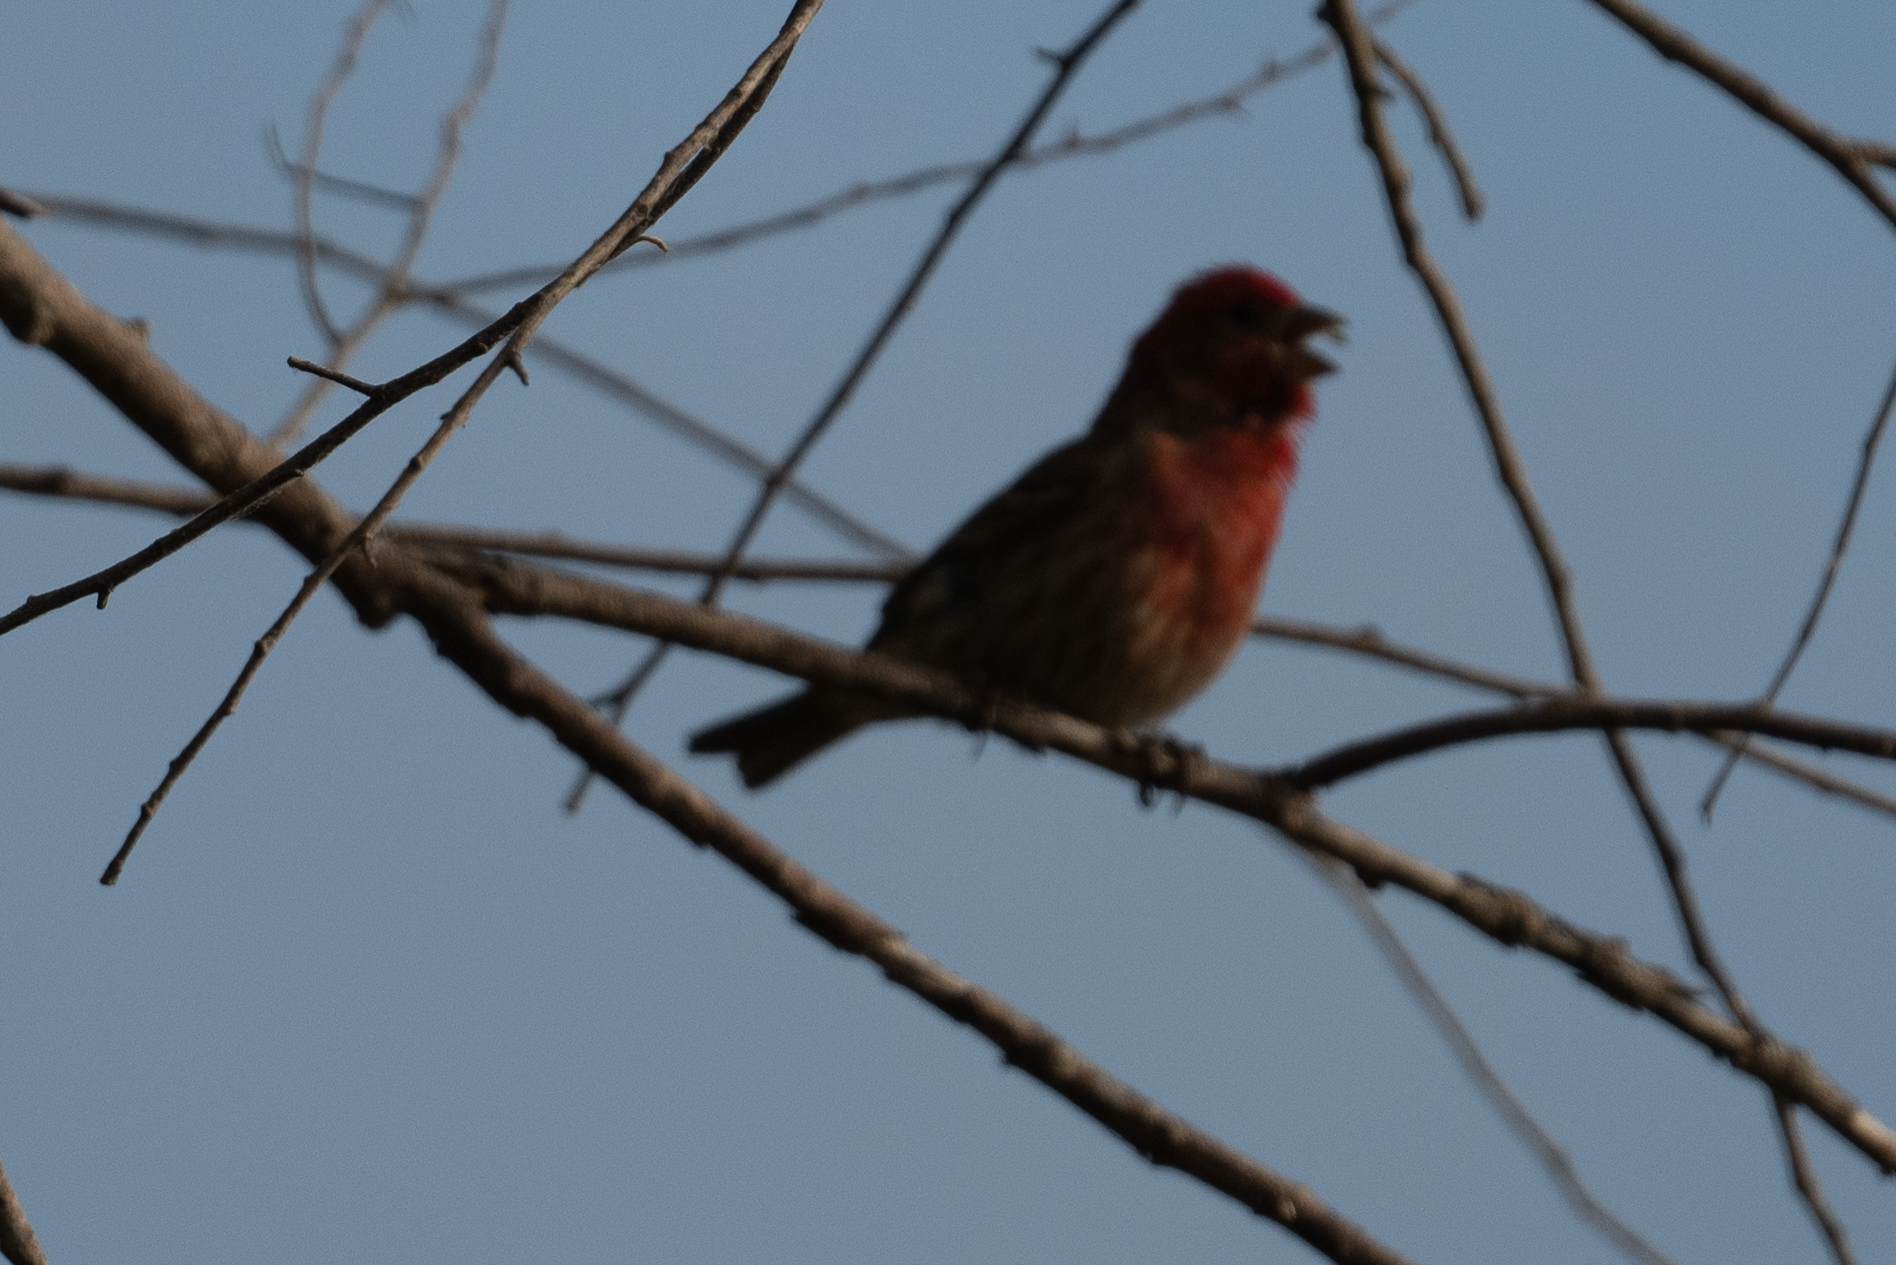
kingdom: Animalia
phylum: Chordata
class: Aves
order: Passeriformes
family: Fringillidae
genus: Haemorhous
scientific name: Haemorhous mexicanus
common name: House finch
